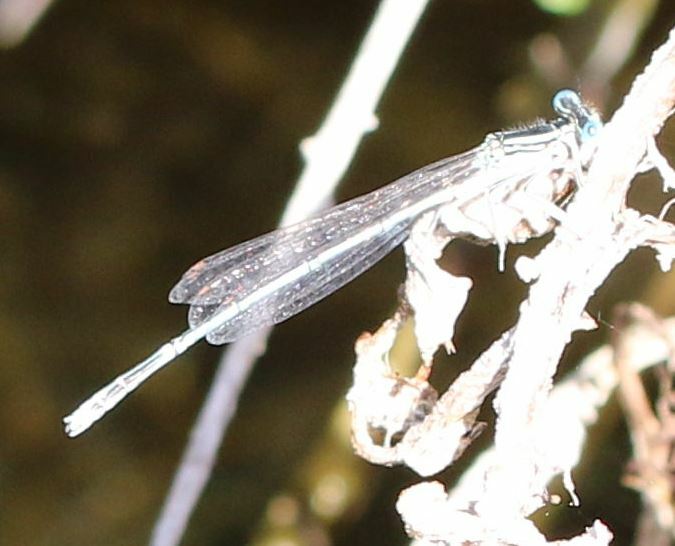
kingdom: Animalia
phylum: Arthropoda
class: Insecta
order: Odonata
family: Platycnemididae
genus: Platycnemis
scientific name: Platycnemis pennipes
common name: White-legged damselfly
